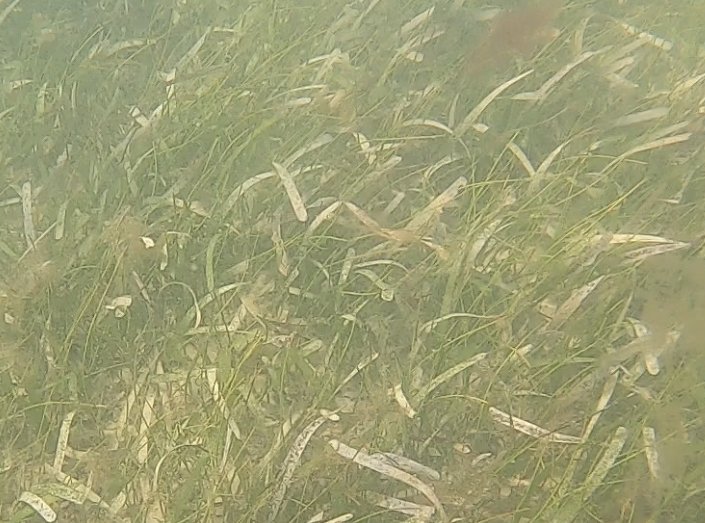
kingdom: Plantae
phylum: Tracheophyta
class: Liliopsida
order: Alismatales
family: Hydrocharitaceae
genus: Thalassia
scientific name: Thalassia testudinum
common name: Species code: tt
